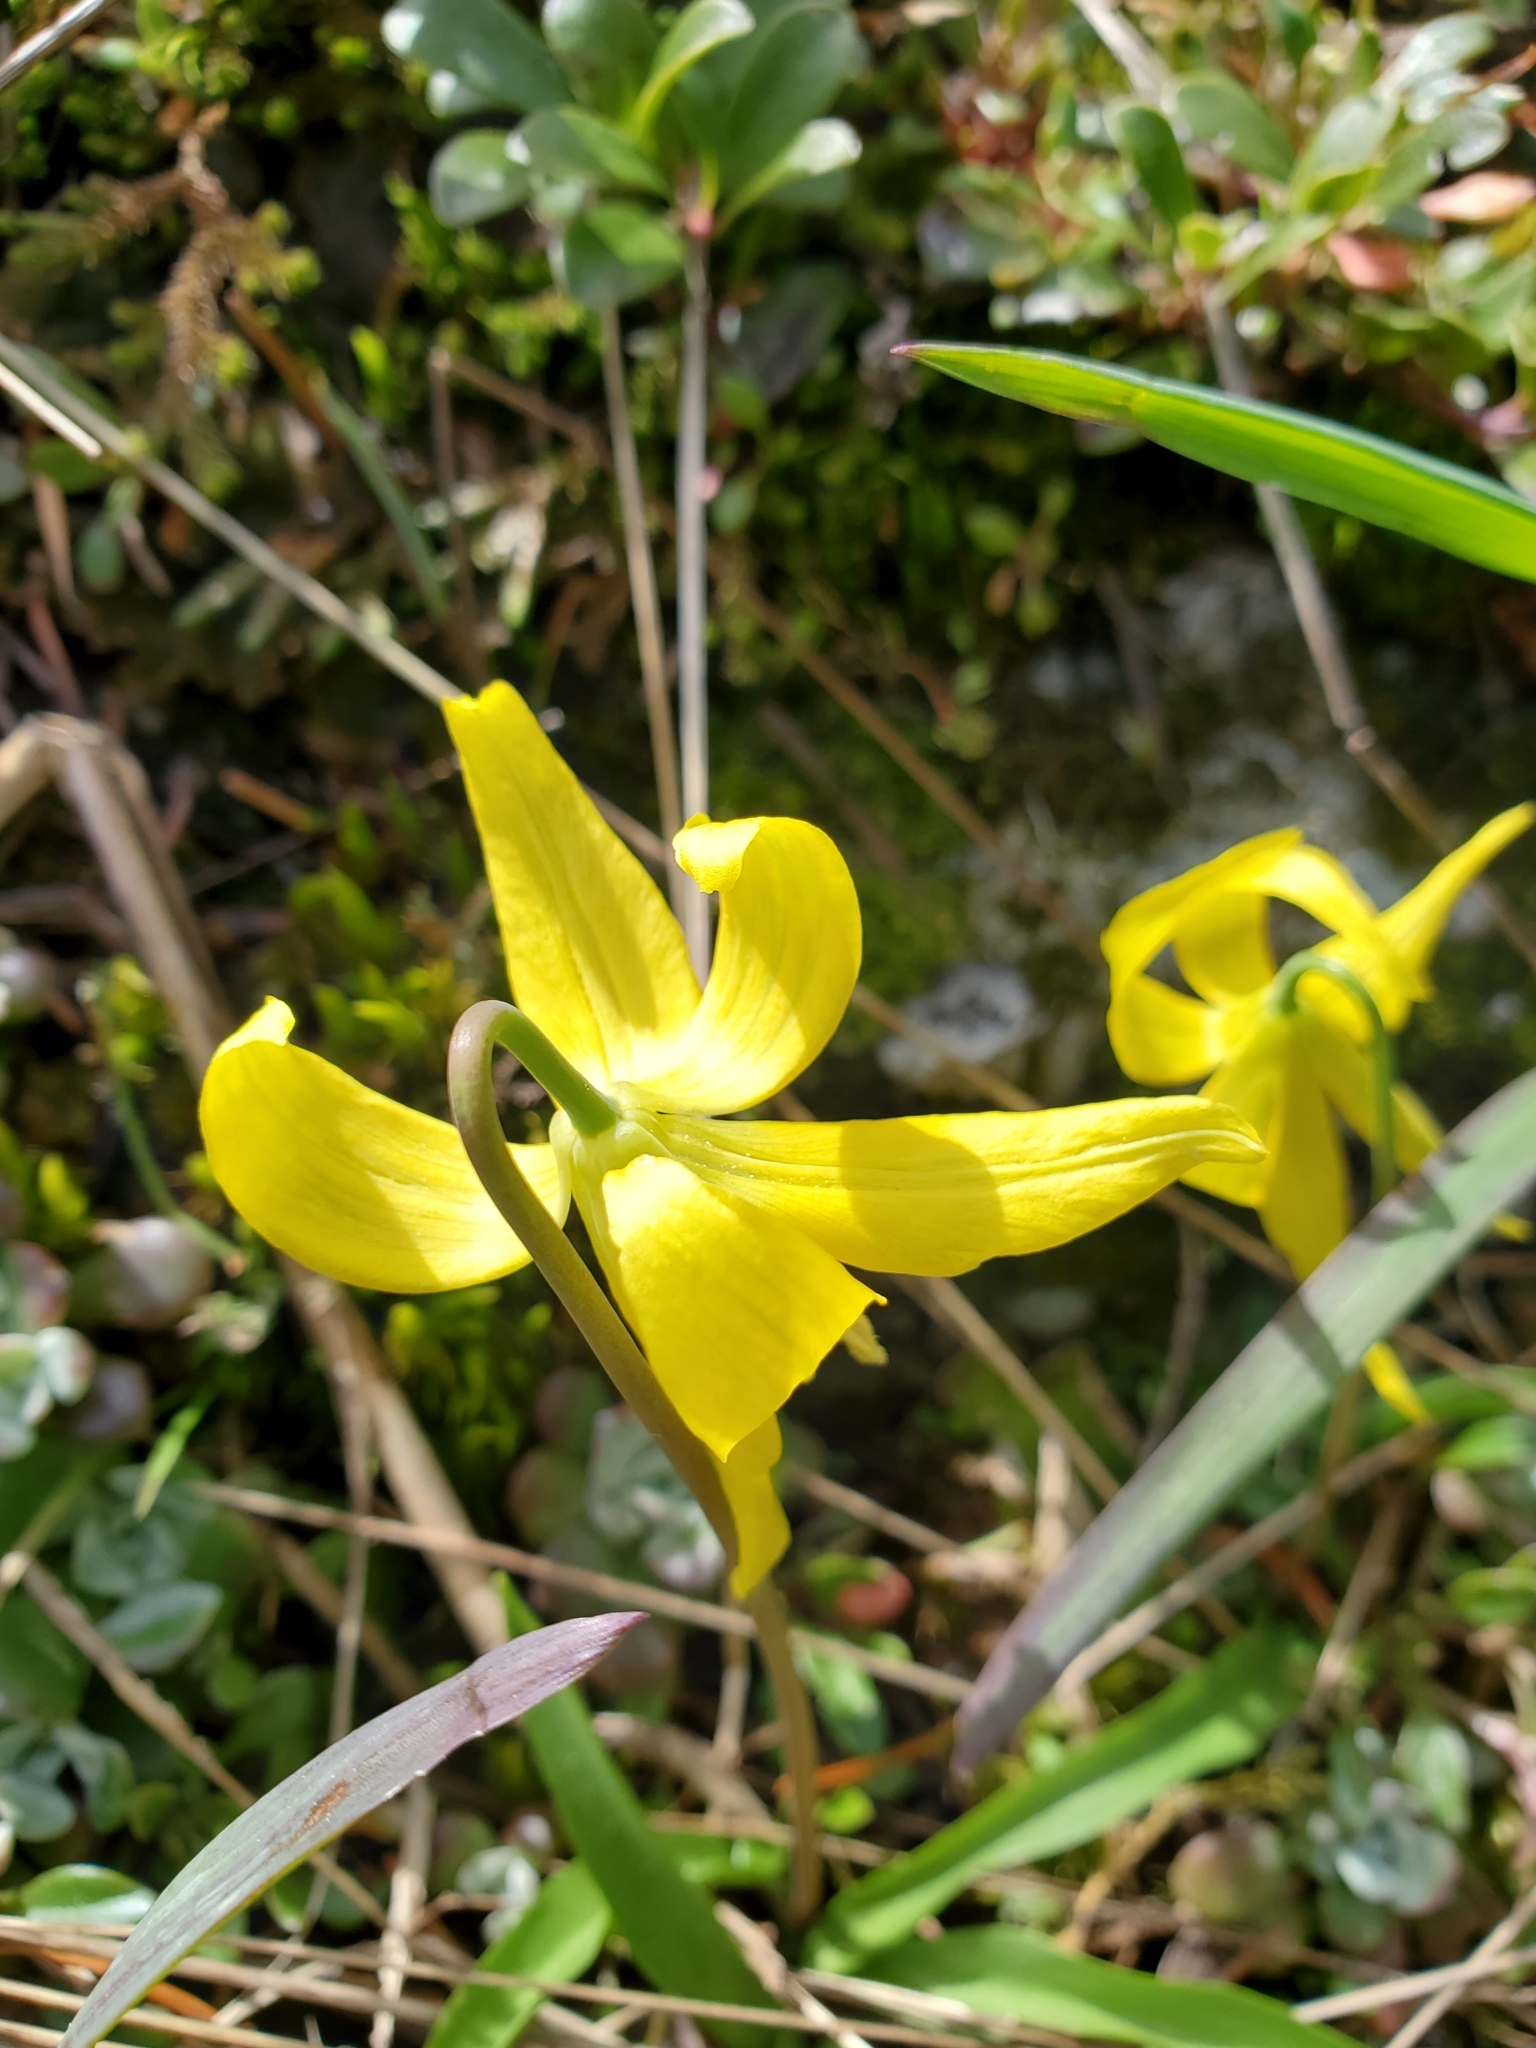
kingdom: Plantae
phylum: Tracheophyta
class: Liliopsida
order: Liliales
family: Liliaceae
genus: Erythronium
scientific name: Erythronium grandiflorum
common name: Avalanche-lily
